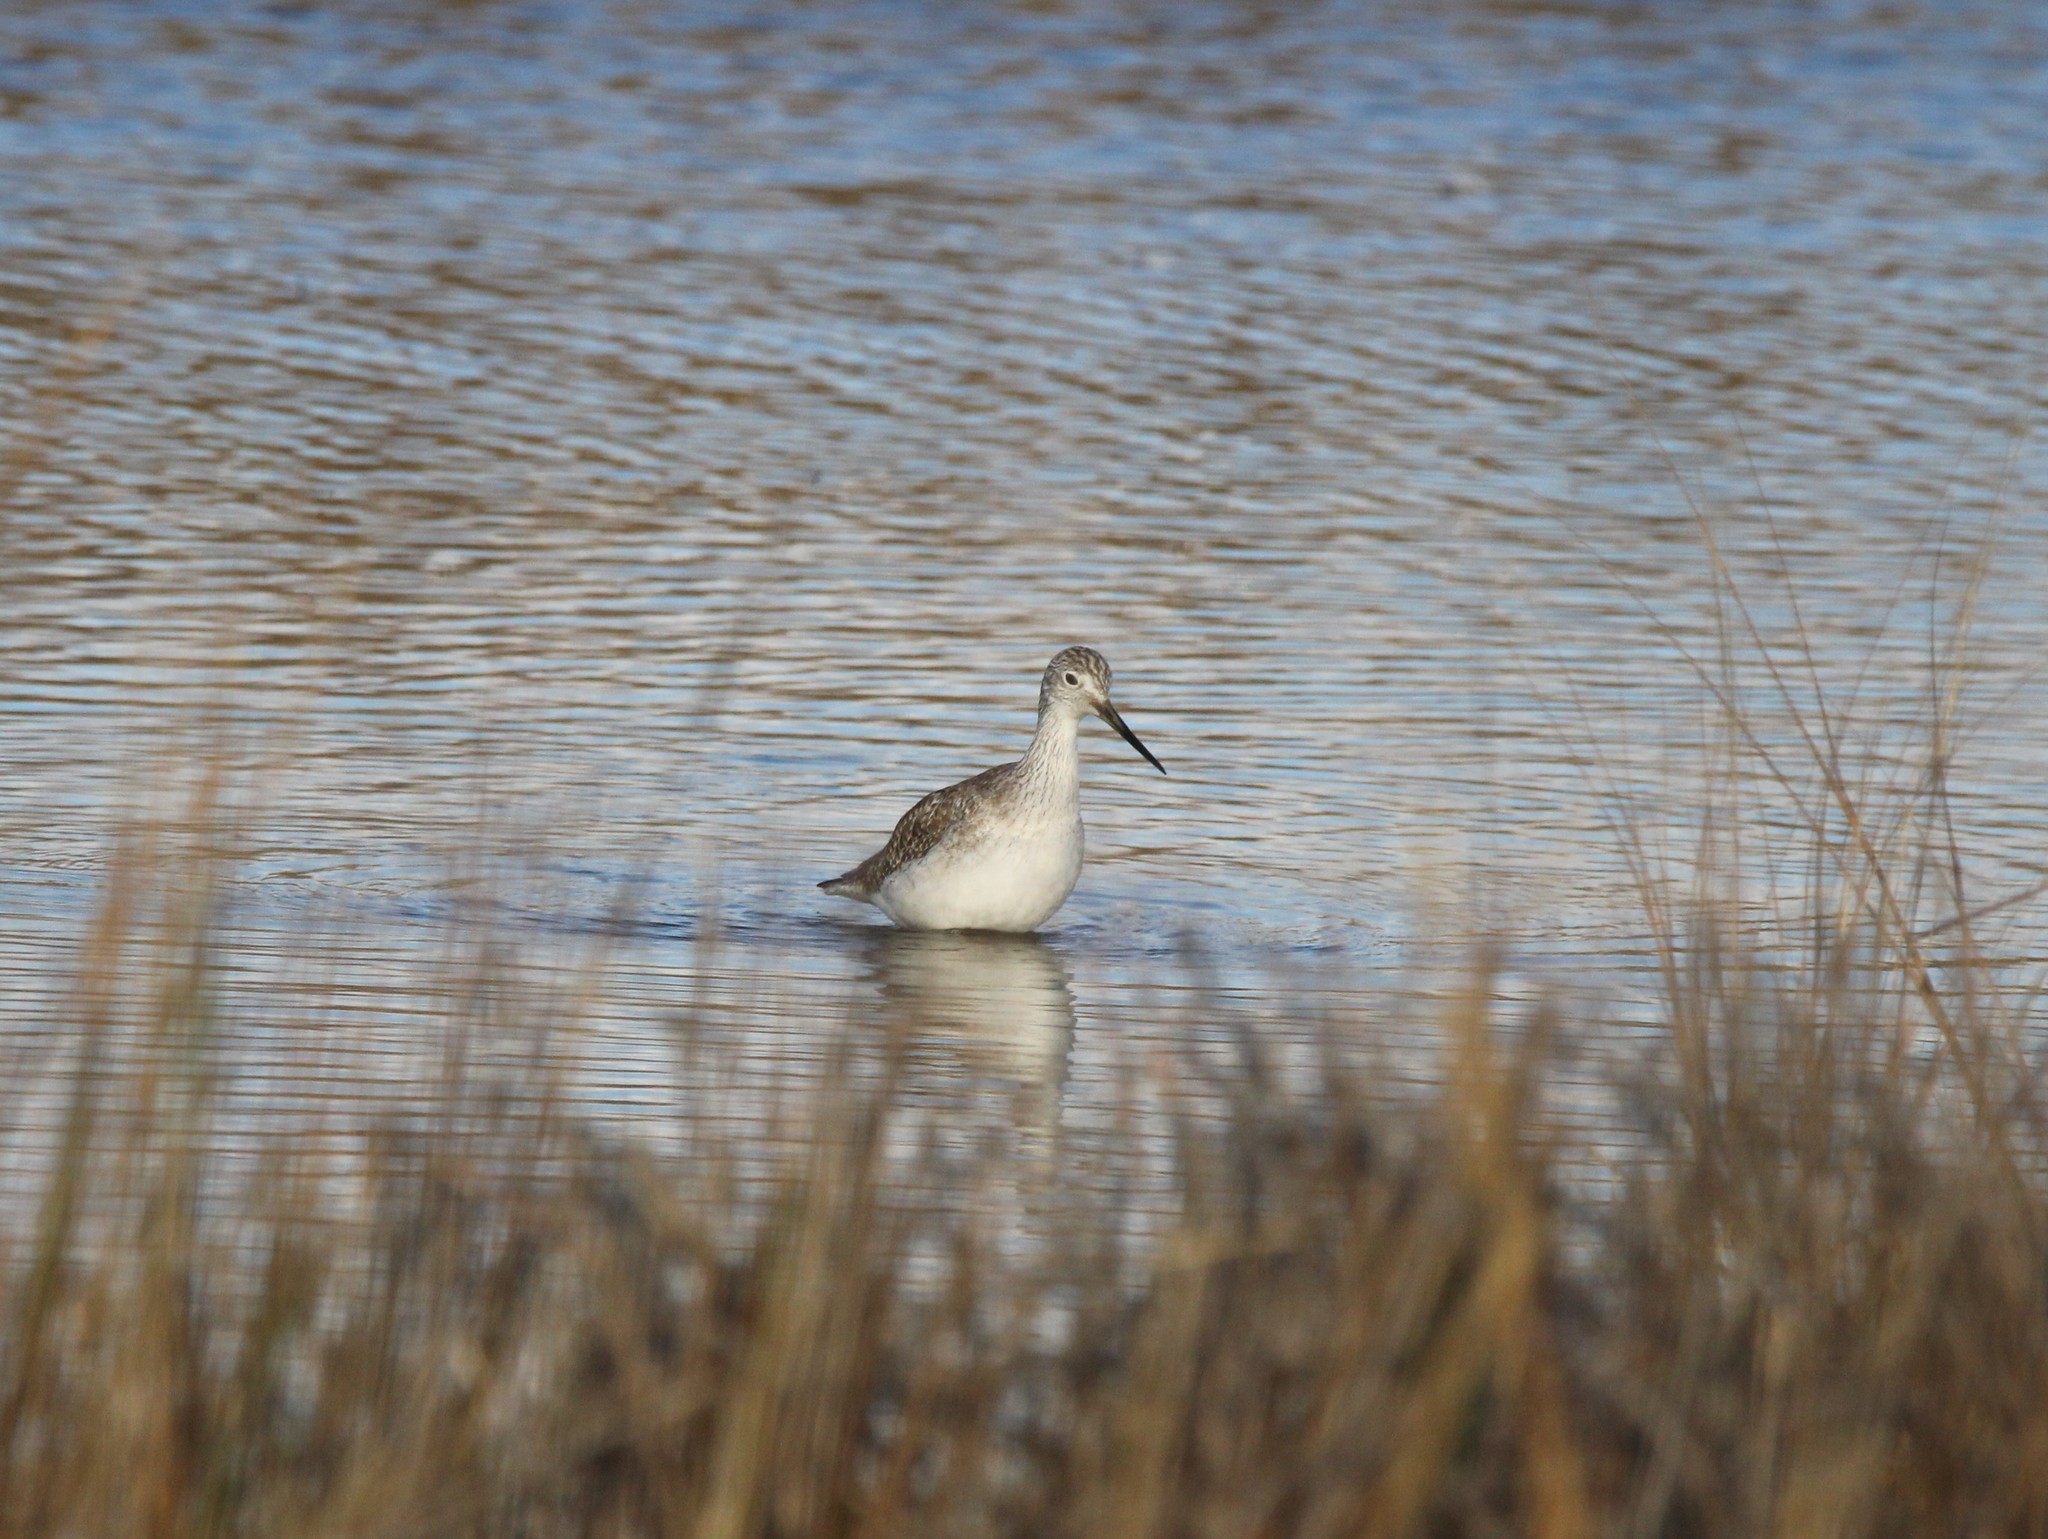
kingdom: Animalia
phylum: Chordata
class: Aves
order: Charadriiformes
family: Scolopacidae
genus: Tringa
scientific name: Tringa melanoleuca
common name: Greater yellowlegs
